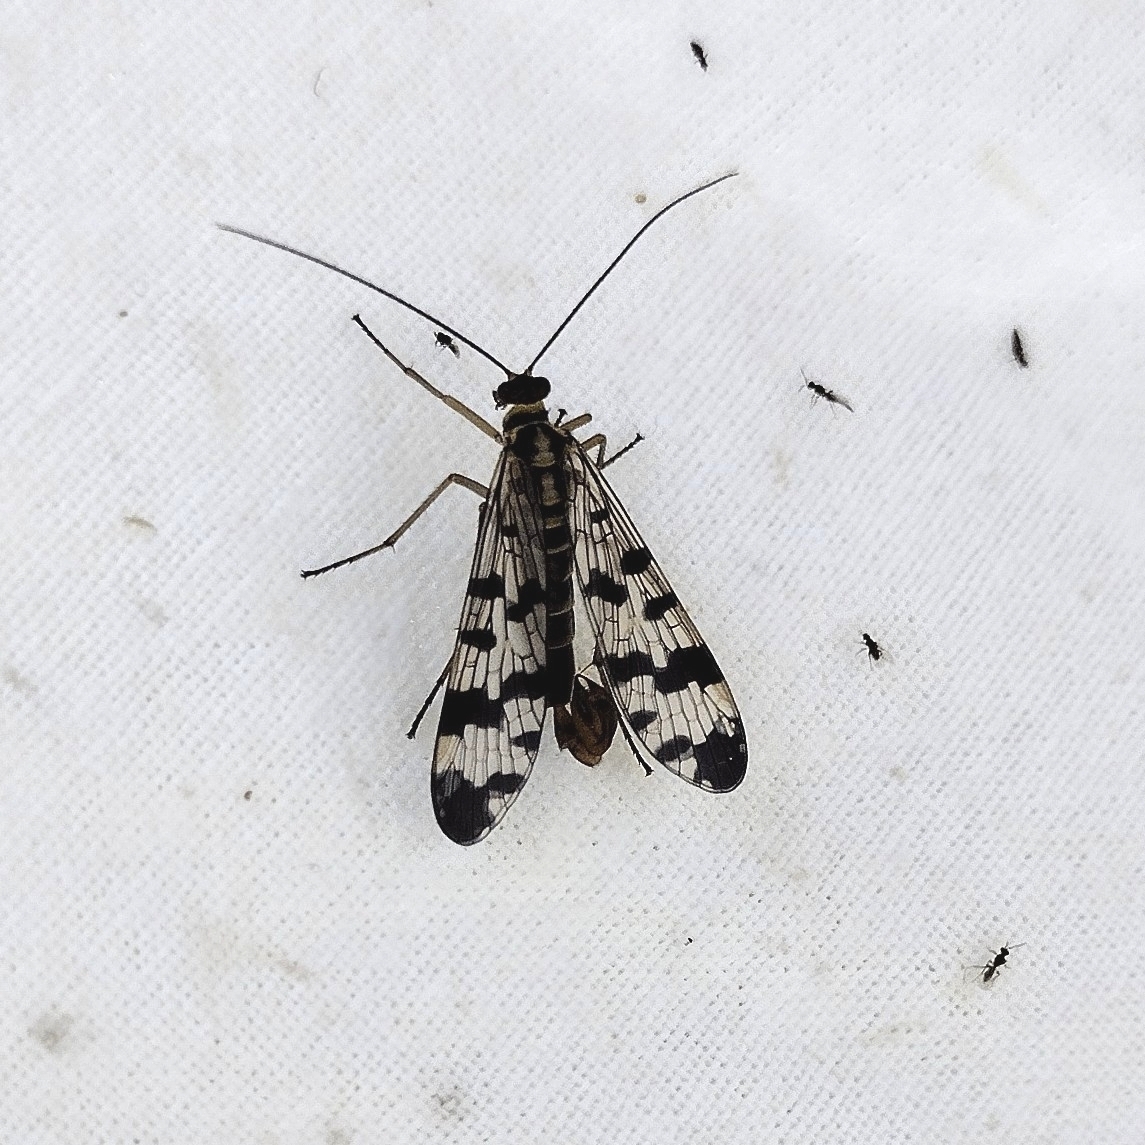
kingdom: Animalia
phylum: Arthropoda
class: Insecta
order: Mecoptera
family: Panorpidae
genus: Panorpa
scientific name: Panorpa communis
